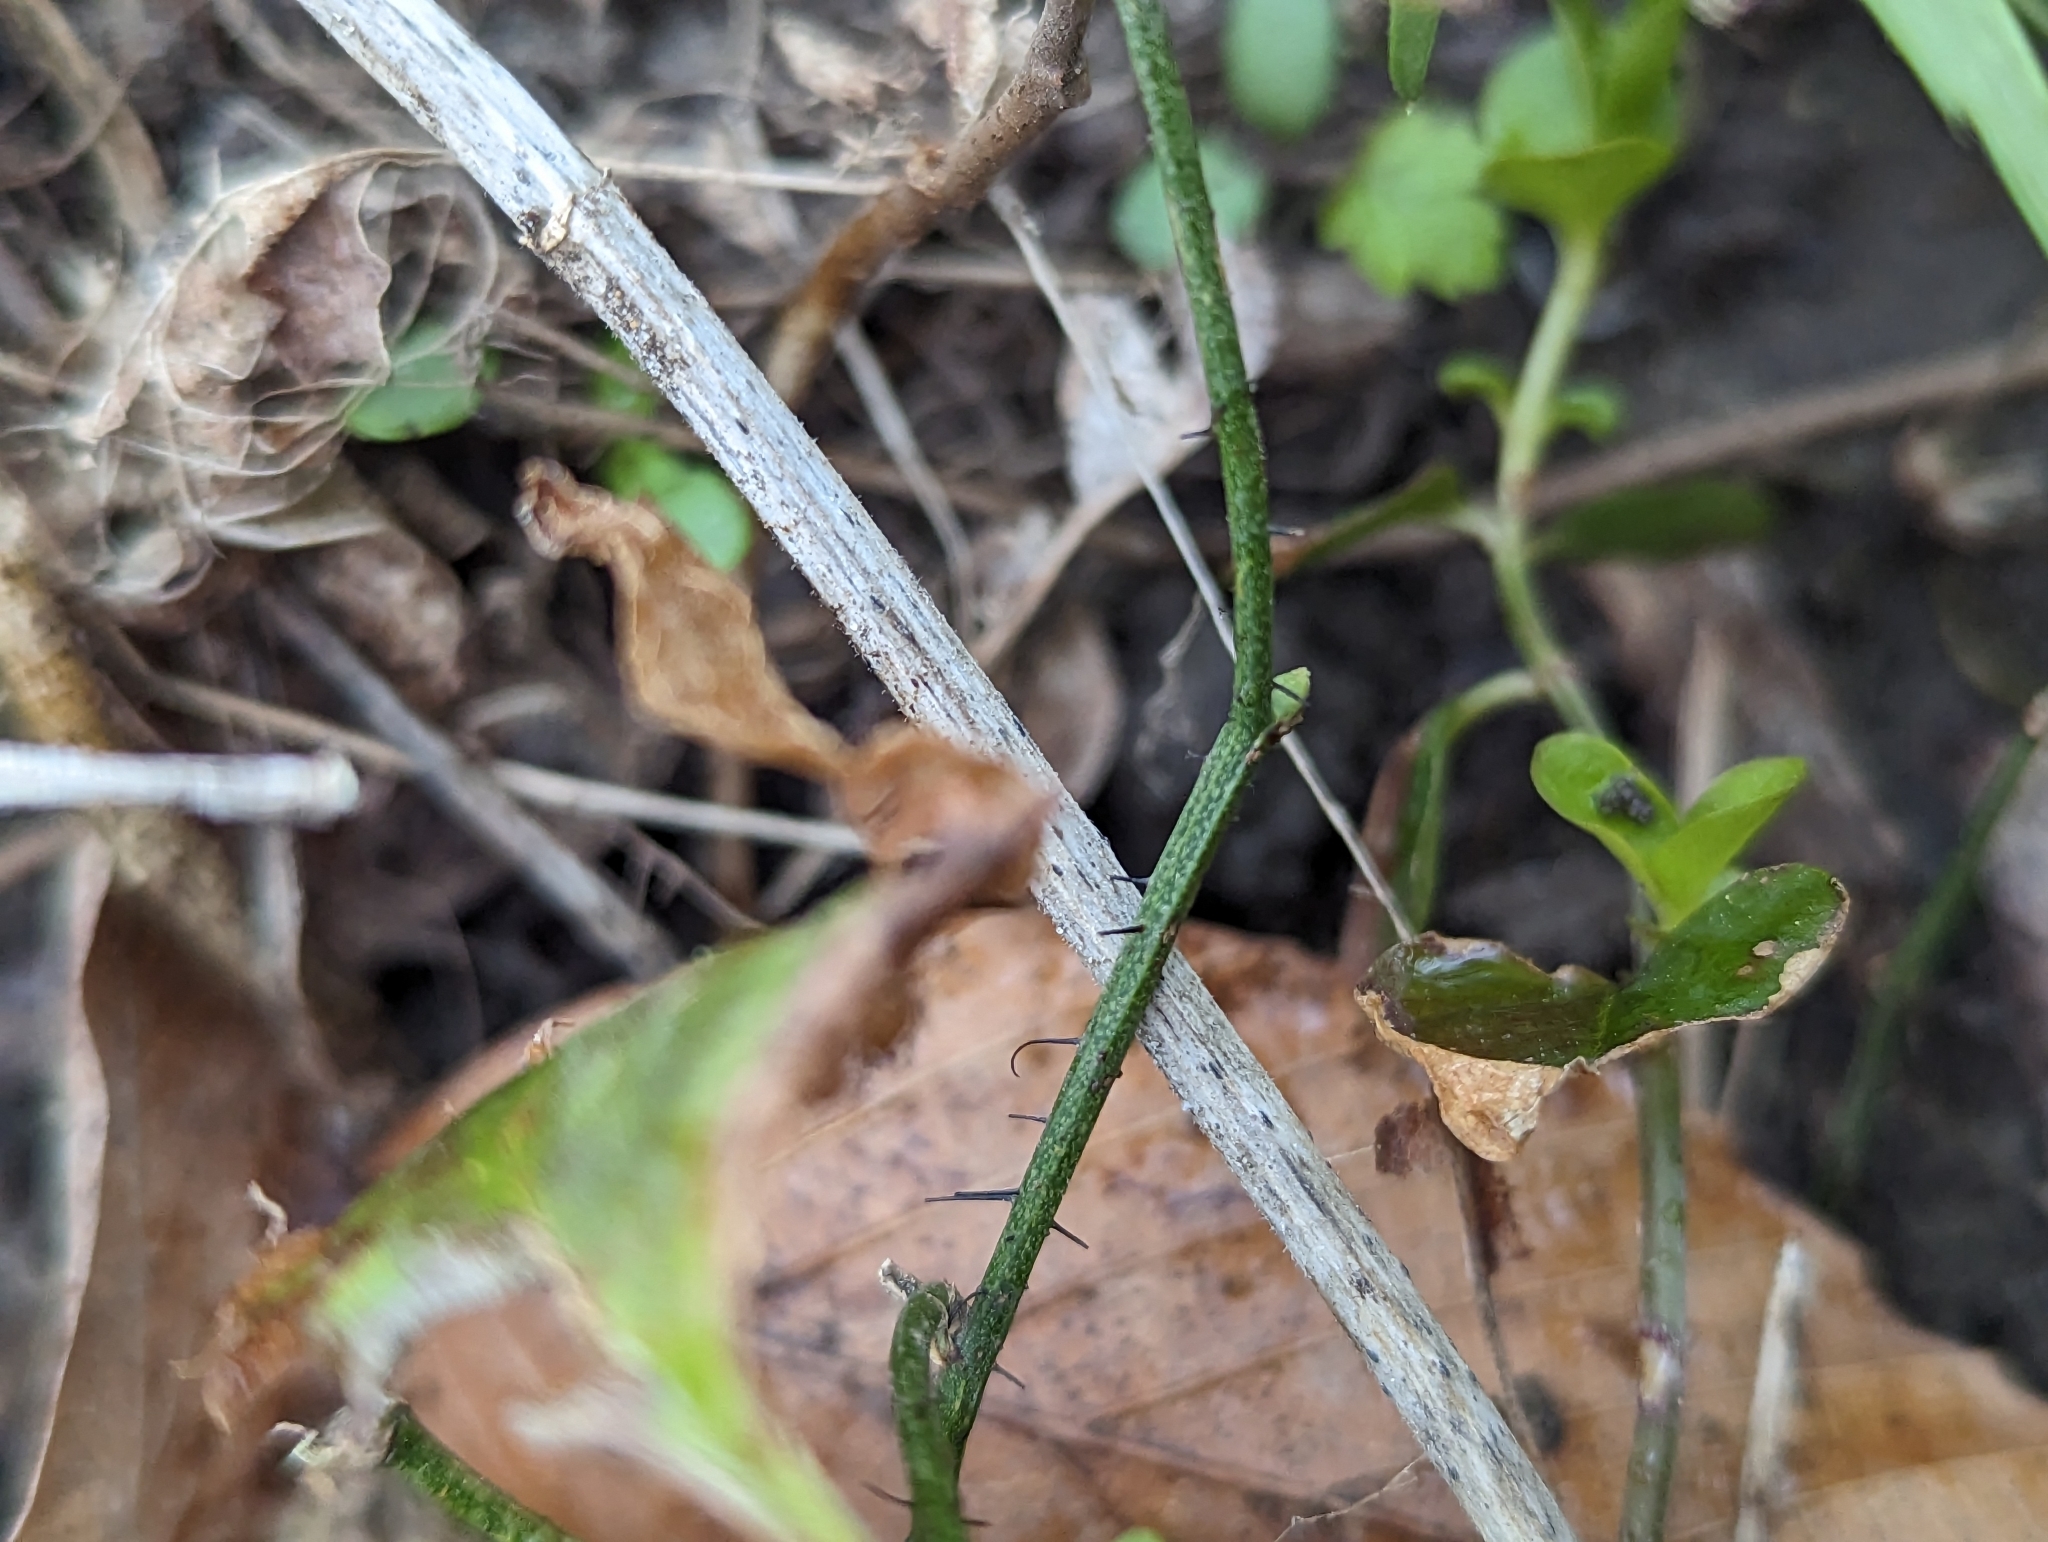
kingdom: Plantae
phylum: Tracheophyta
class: Liliopsida
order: Liliales
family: Smilacaceae
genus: Smilax
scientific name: Smilax tamnoides
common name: Hellfetter
